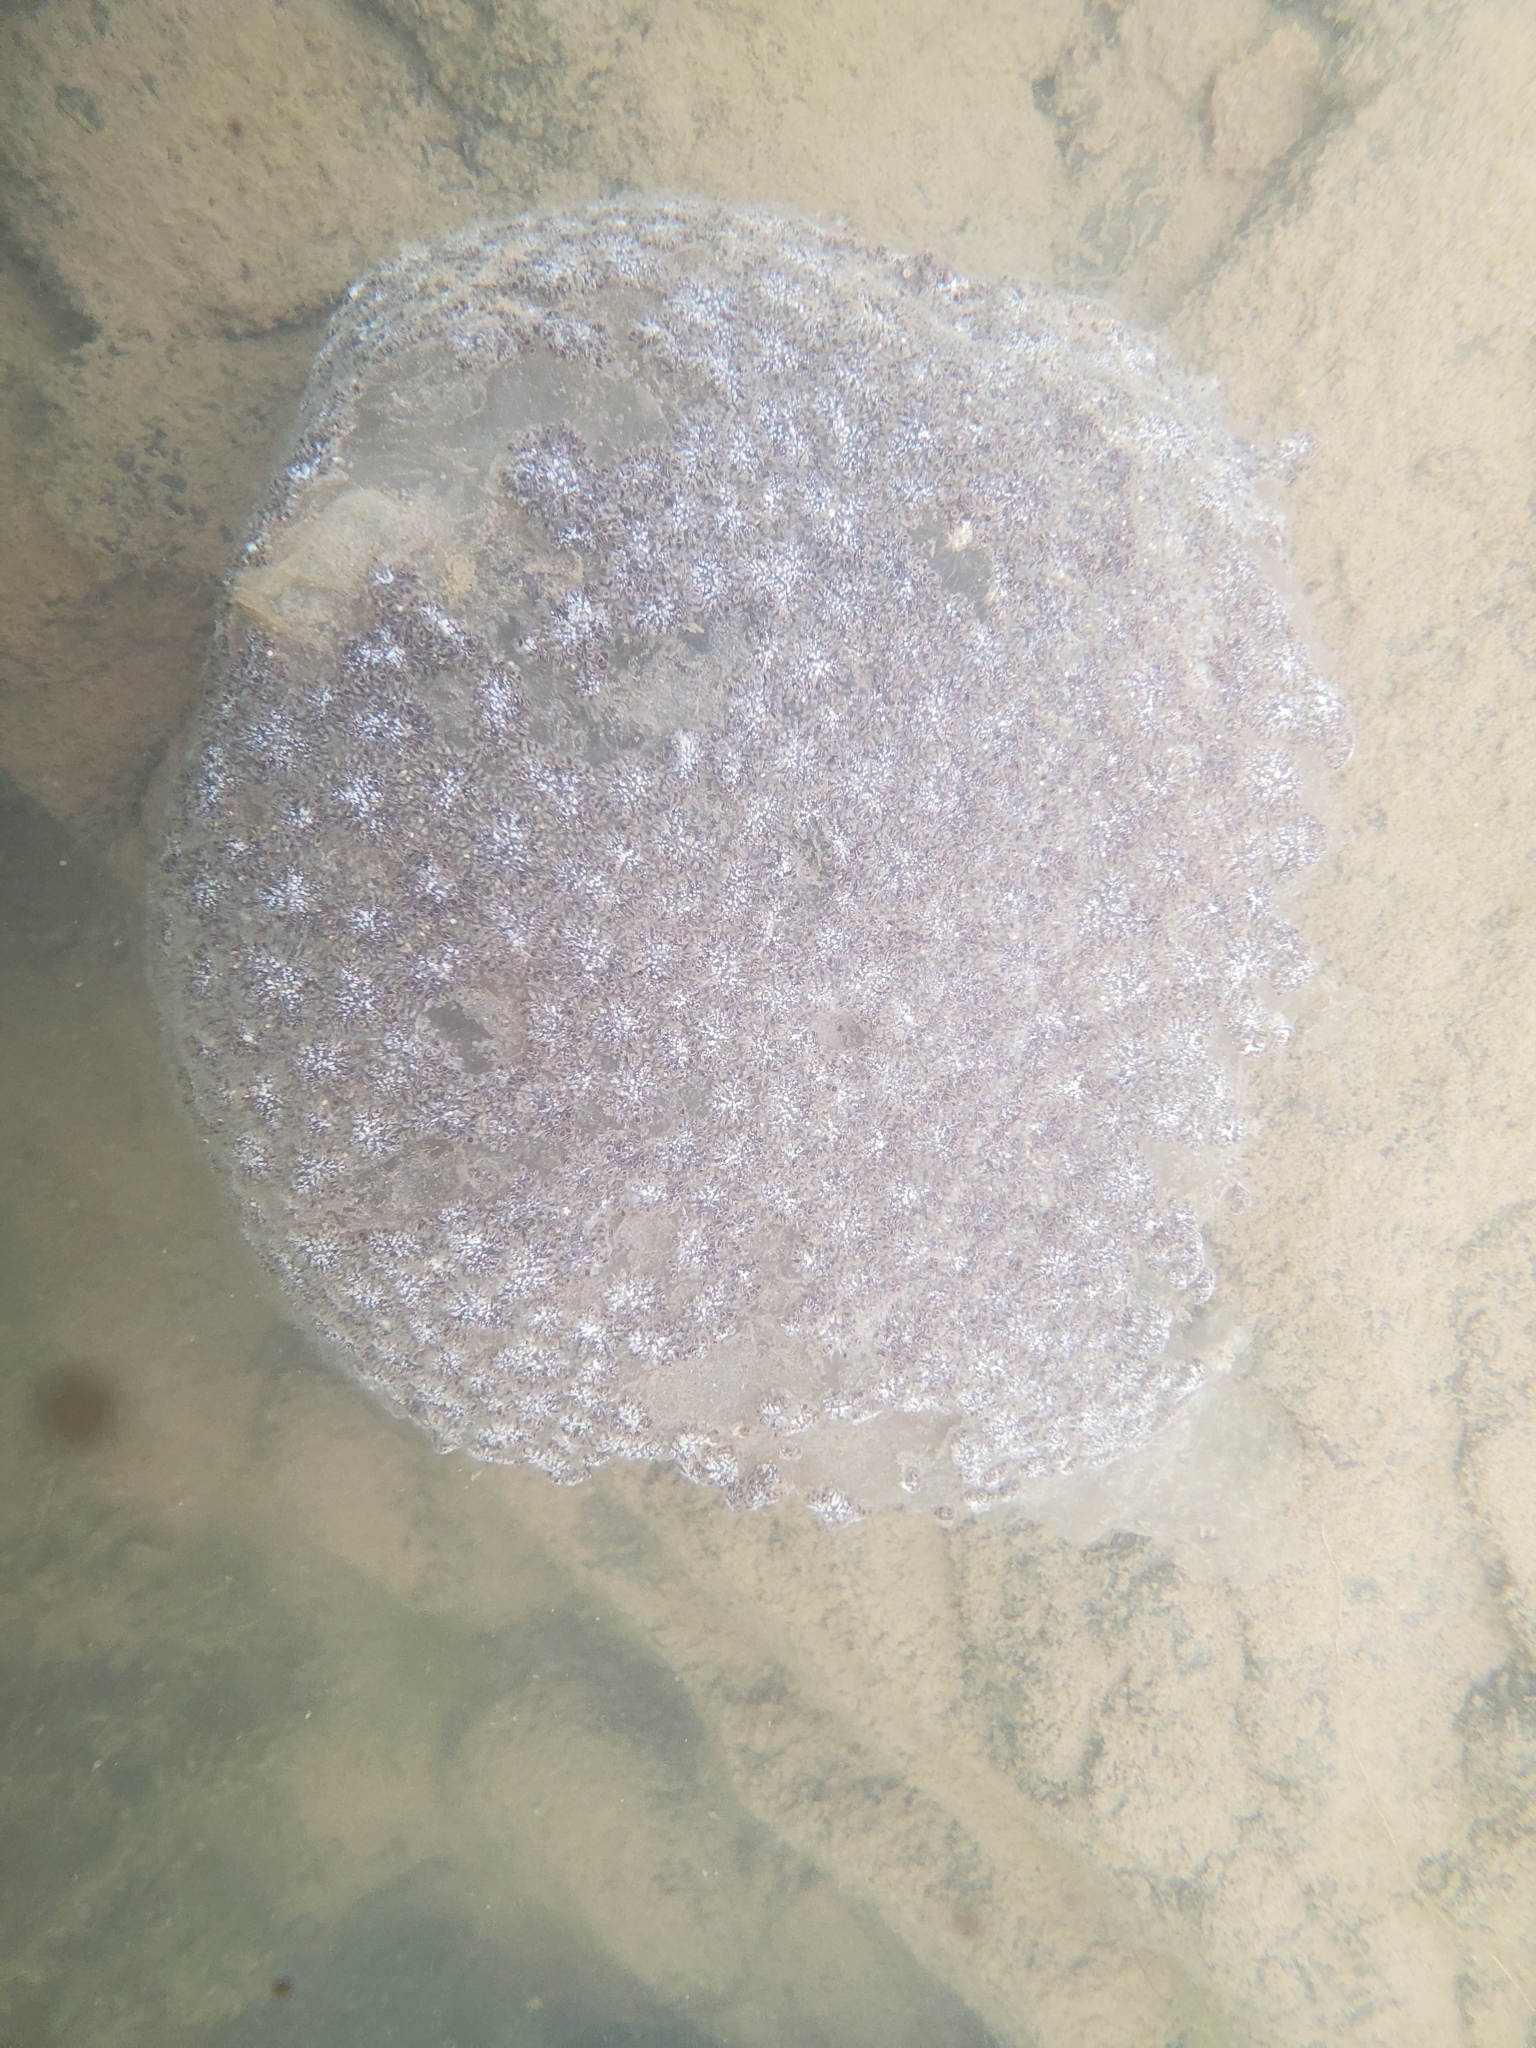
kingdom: Animalia
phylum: Bryozoa
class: Phylactolaemata
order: Plumatellida
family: Pectinatellidae
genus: Pectinatella
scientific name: Pectinatella magnifica
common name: Magnificent bryozoan
